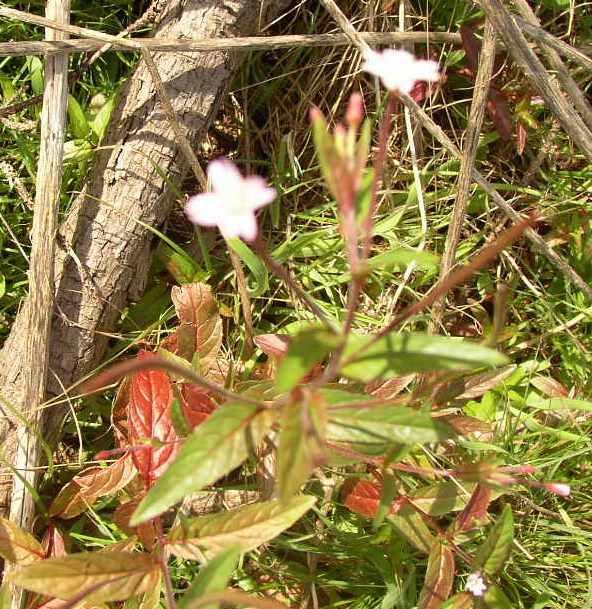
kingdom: Plantae
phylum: Tracheophyta
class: Magnoliopsida
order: Myrtales
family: Onagraceae
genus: Epilobium
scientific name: Epilobium tetragonum
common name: Square-stemmed willowherb
